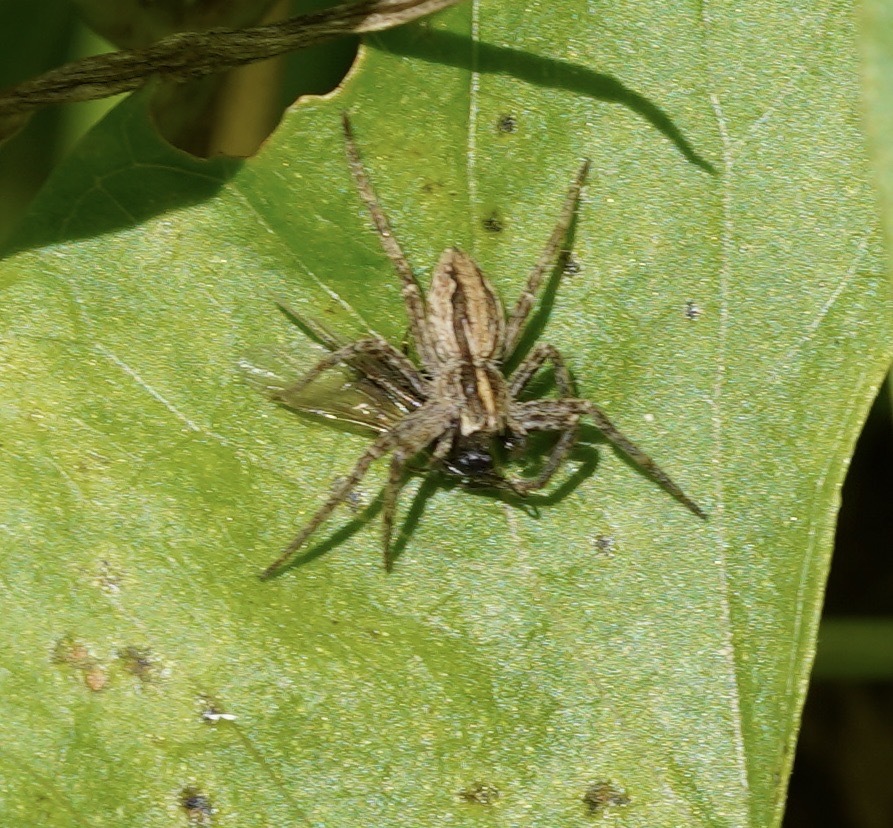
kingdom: Animalia
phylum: Arthropoda
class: Arachnida
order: Araneae
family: Pisauridae
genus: Pisaura
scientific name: Pisaura mirabilis
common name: Tent spider
